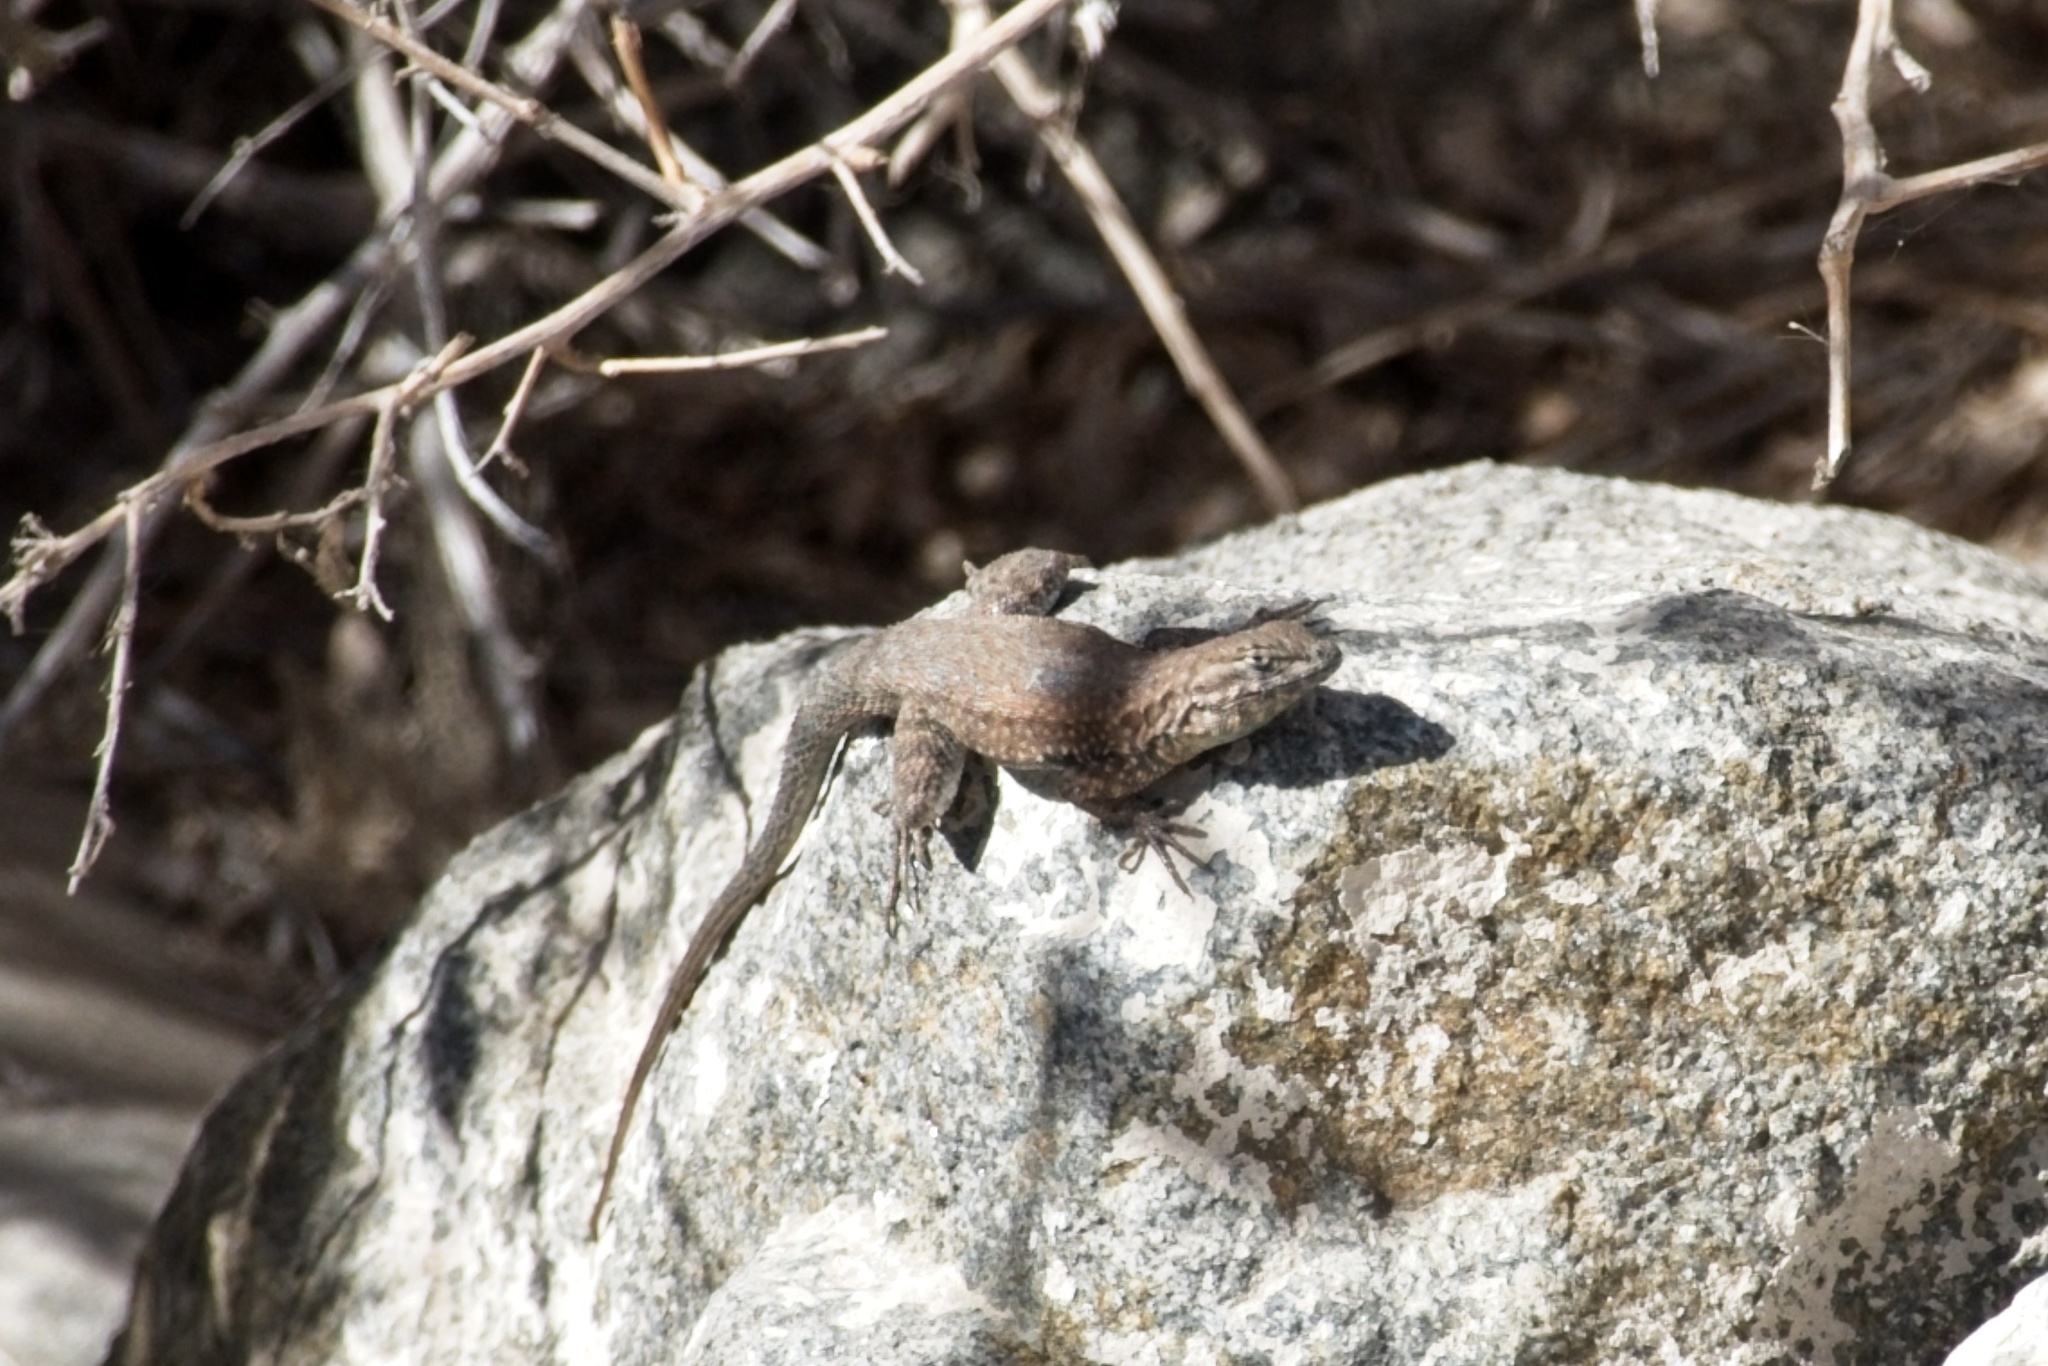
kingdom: Animalia
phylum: Chordata
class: Squamata
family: Phrynosomatidae
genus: Uta
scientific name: Uta stansburiana
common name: Side-blotched lizard
